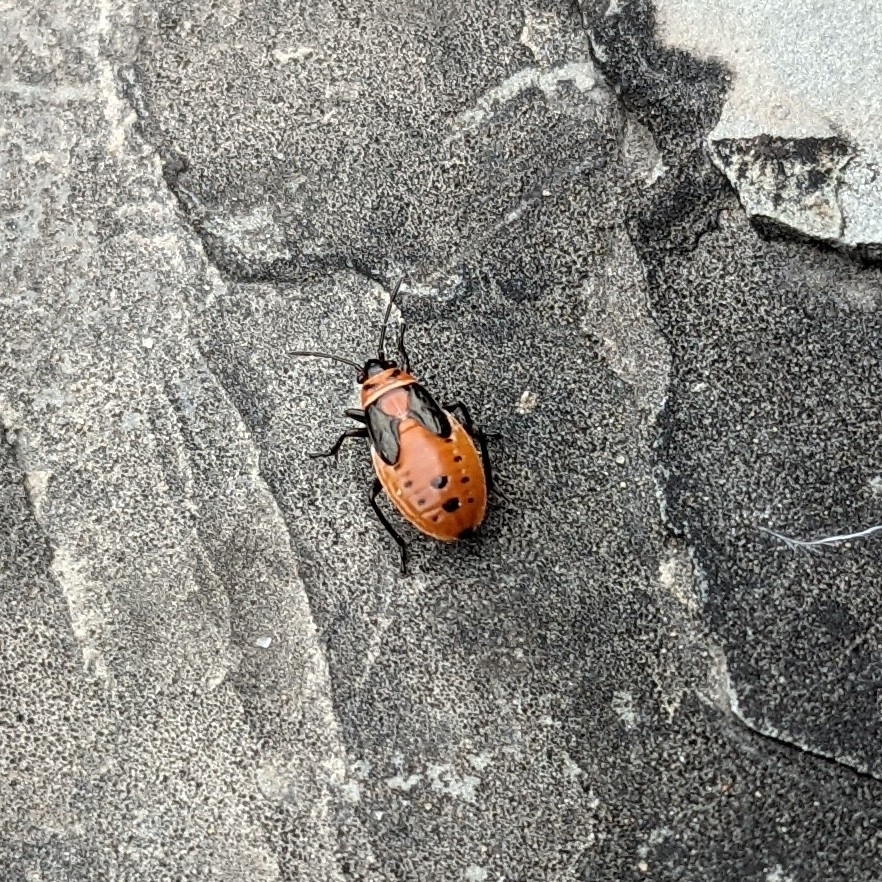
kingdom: Animalia
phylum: Arthropoda
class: Insecta
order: Hemiptera
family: Lygaeidae
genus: Lygaeus
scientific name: Lygaeus kalmii
